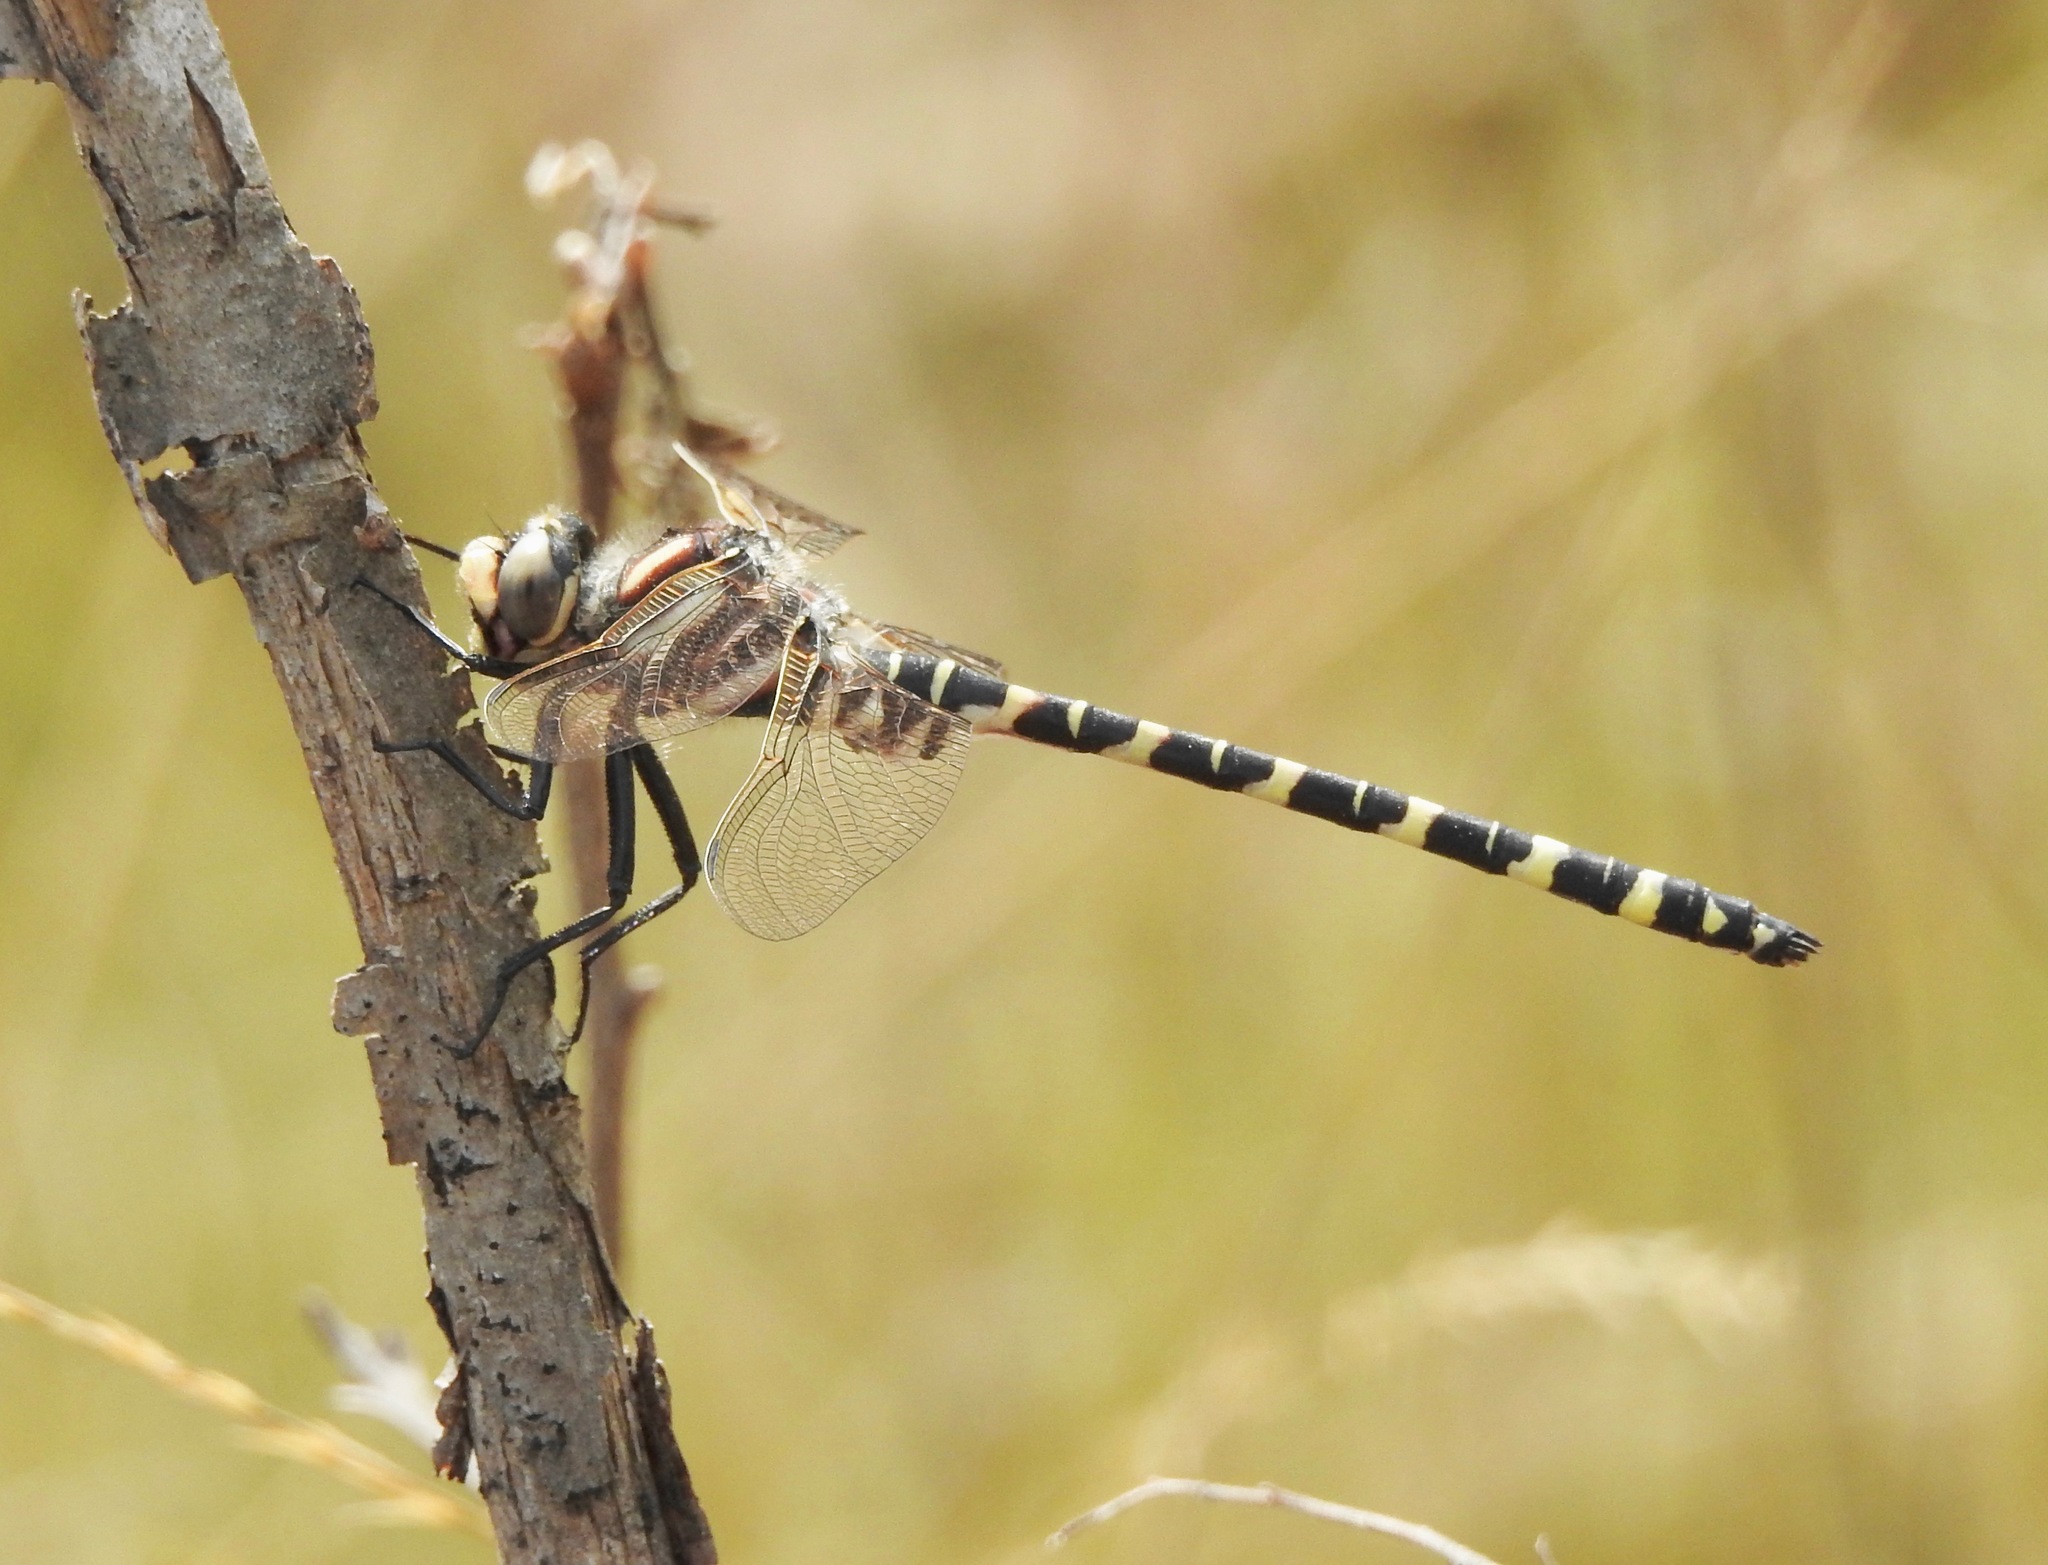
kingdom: Animalia
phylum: Arthropoda
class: Insecta
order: Odonata
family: Cordulegastridae
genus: Cordulegaster
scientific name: Cordulegaster sayi
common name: Say's spiketail
